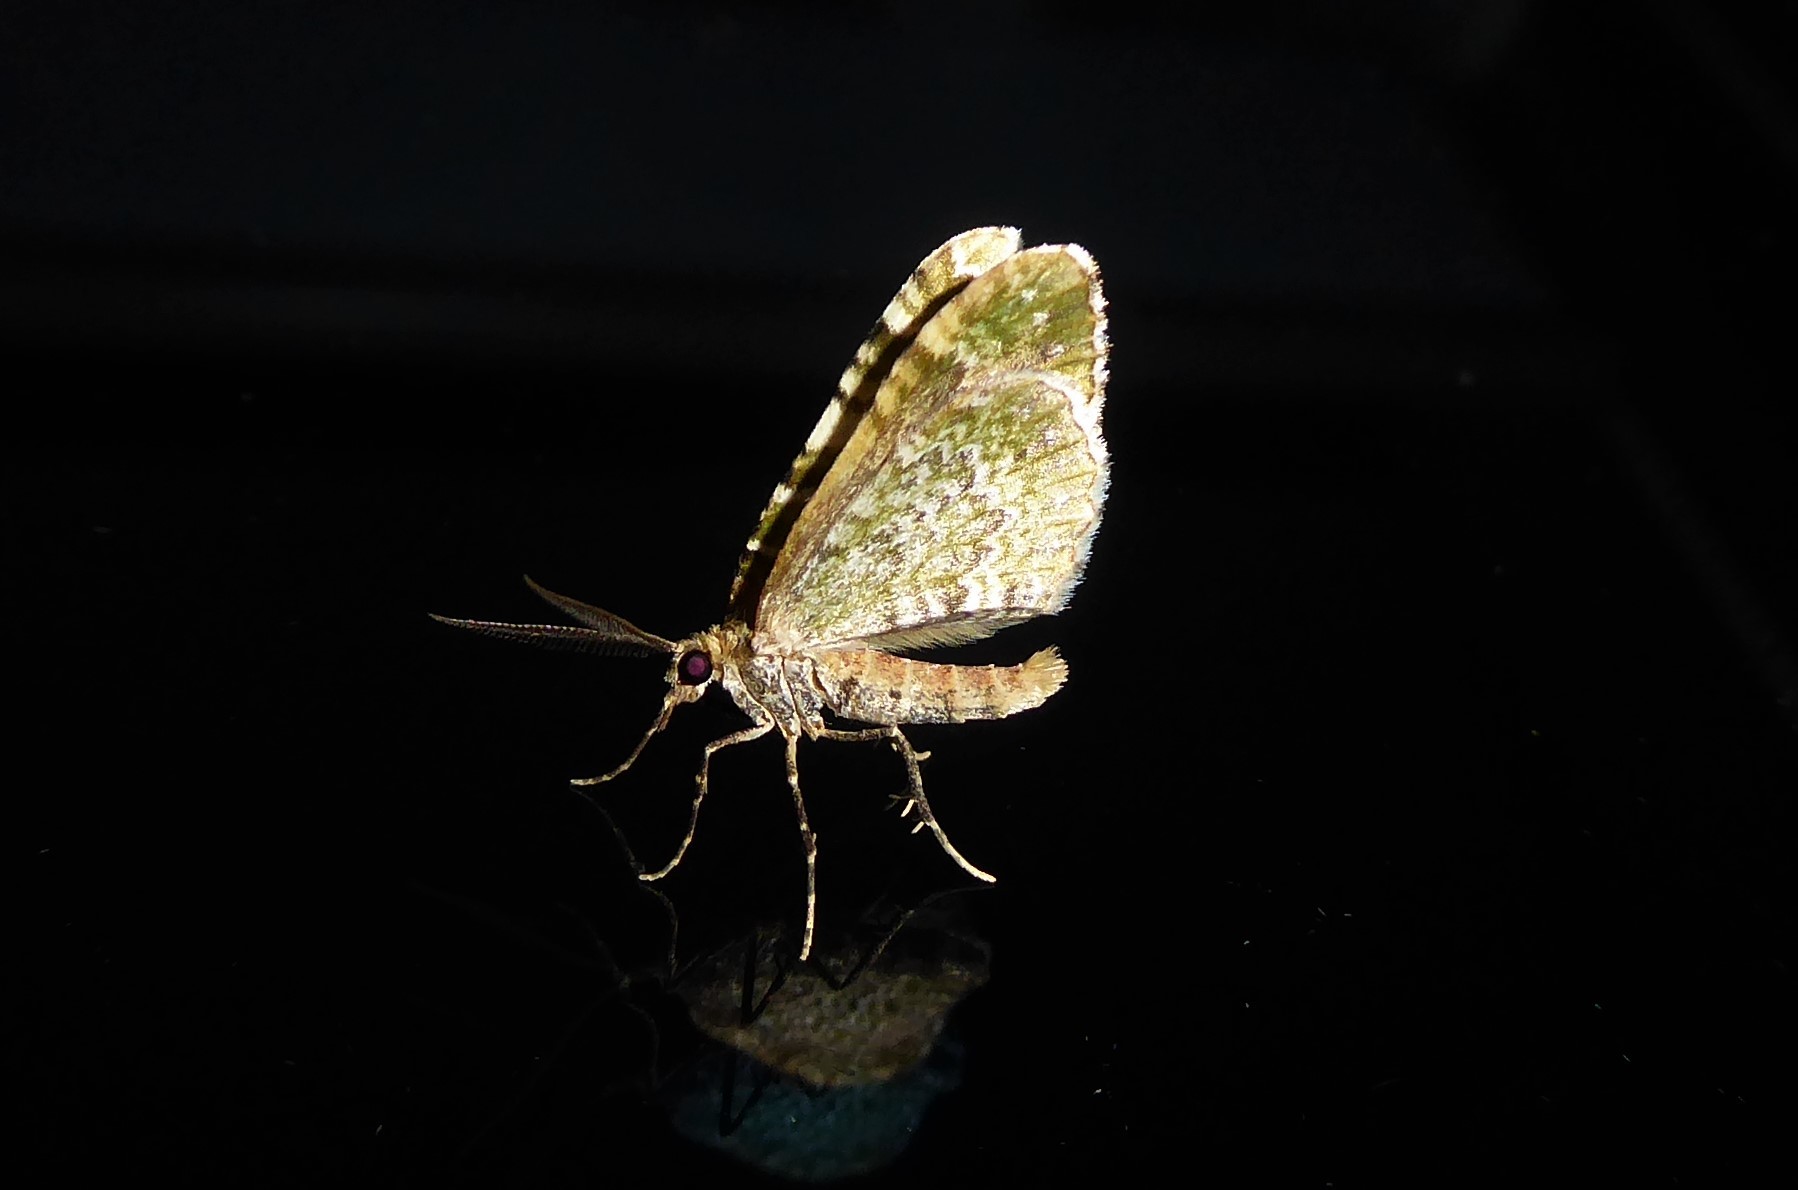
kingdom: Animalia
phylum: Arthropoda
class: Insecta
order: Lepidoptera
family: Geometridae
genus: Asaphodes
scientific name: Asaphodes beata
